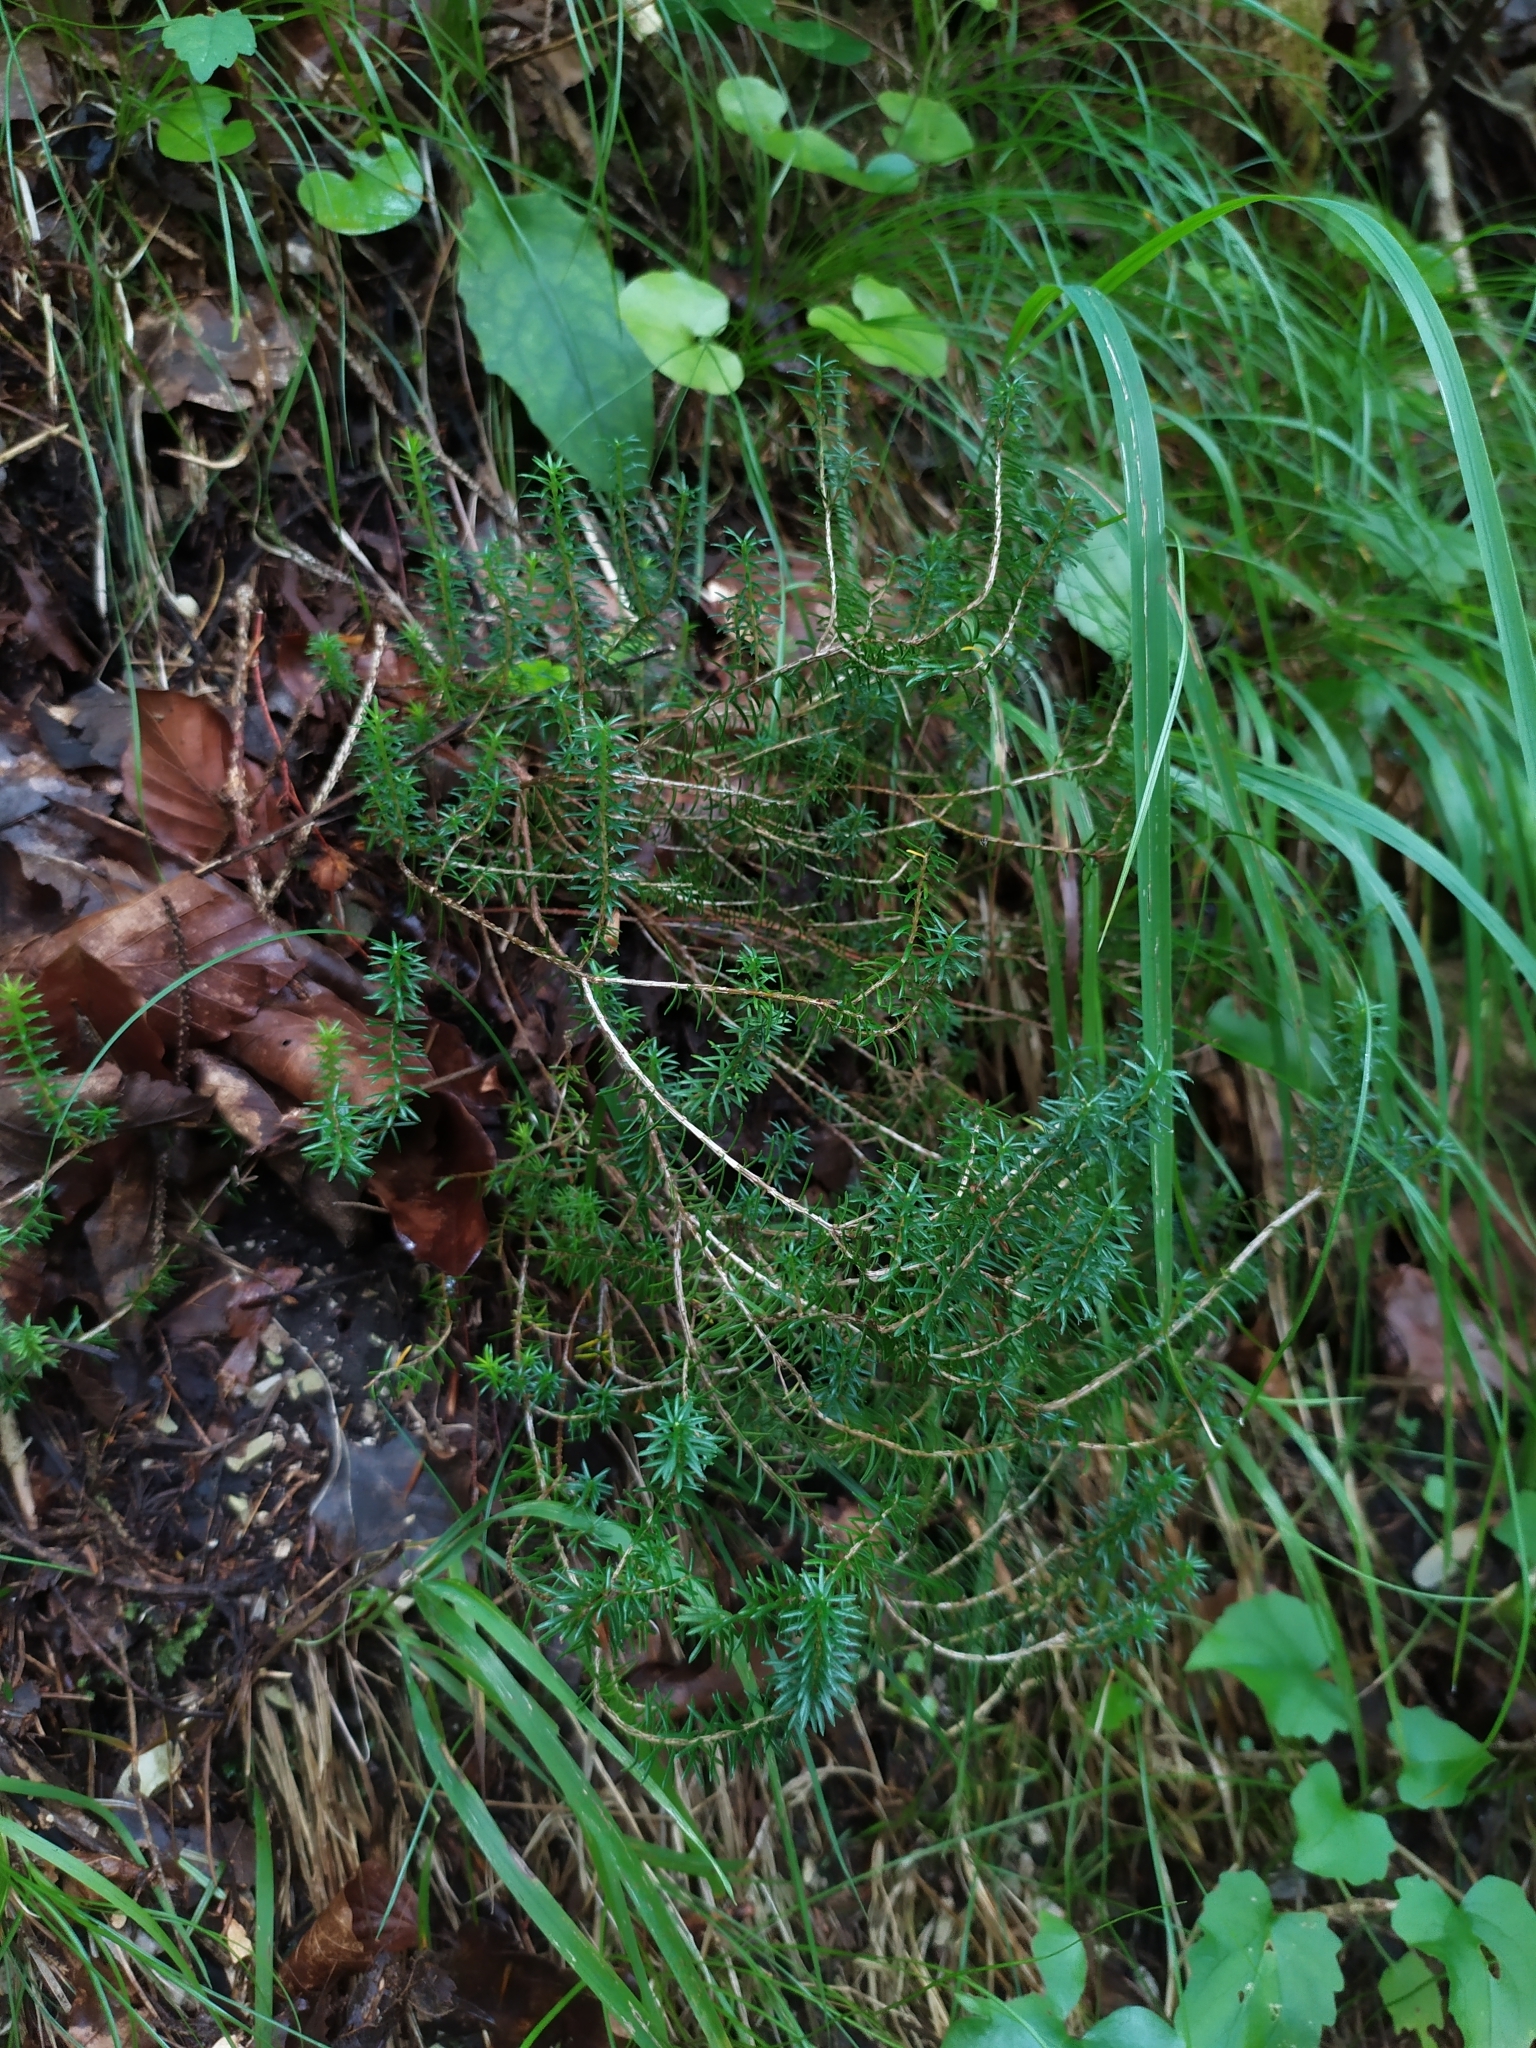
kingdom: Plantae
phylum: Tracheophyta
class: Magnoliopsida
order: Ericales
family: Ericaceae
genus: Erica
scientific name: Erica carnea
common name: Winter heath
